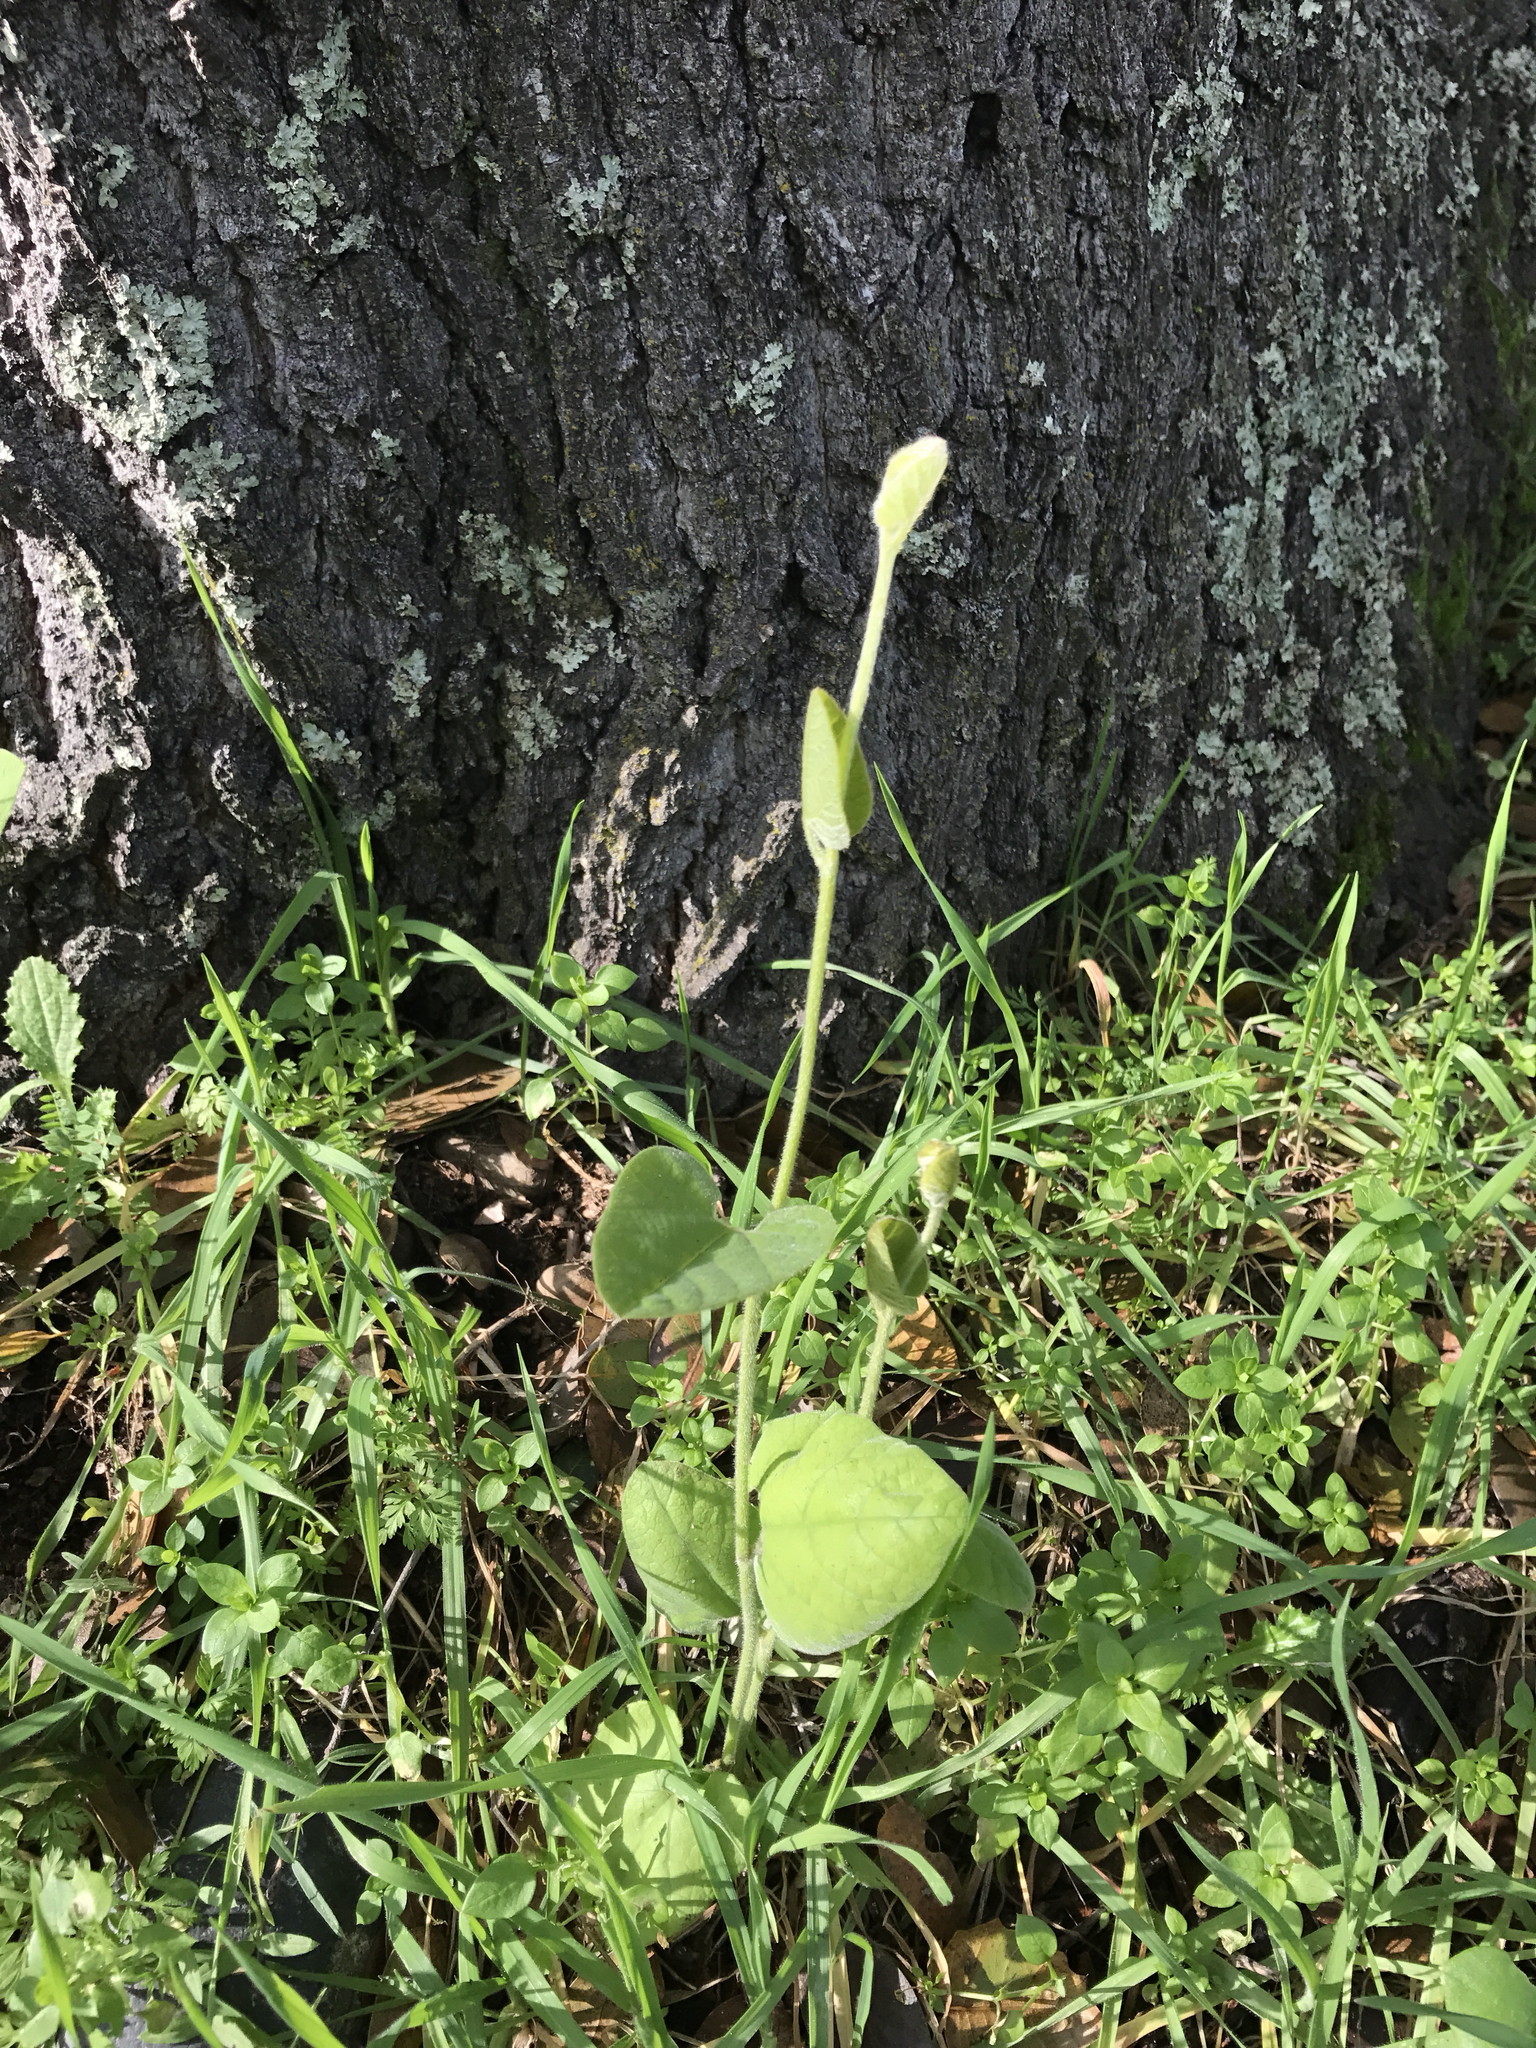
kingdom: Plantae
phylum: Tracheophyta
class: Magnoliopsida
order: Piperales
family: Aristolochiaceae
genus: Isotrema
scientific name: Isotrema californicum
